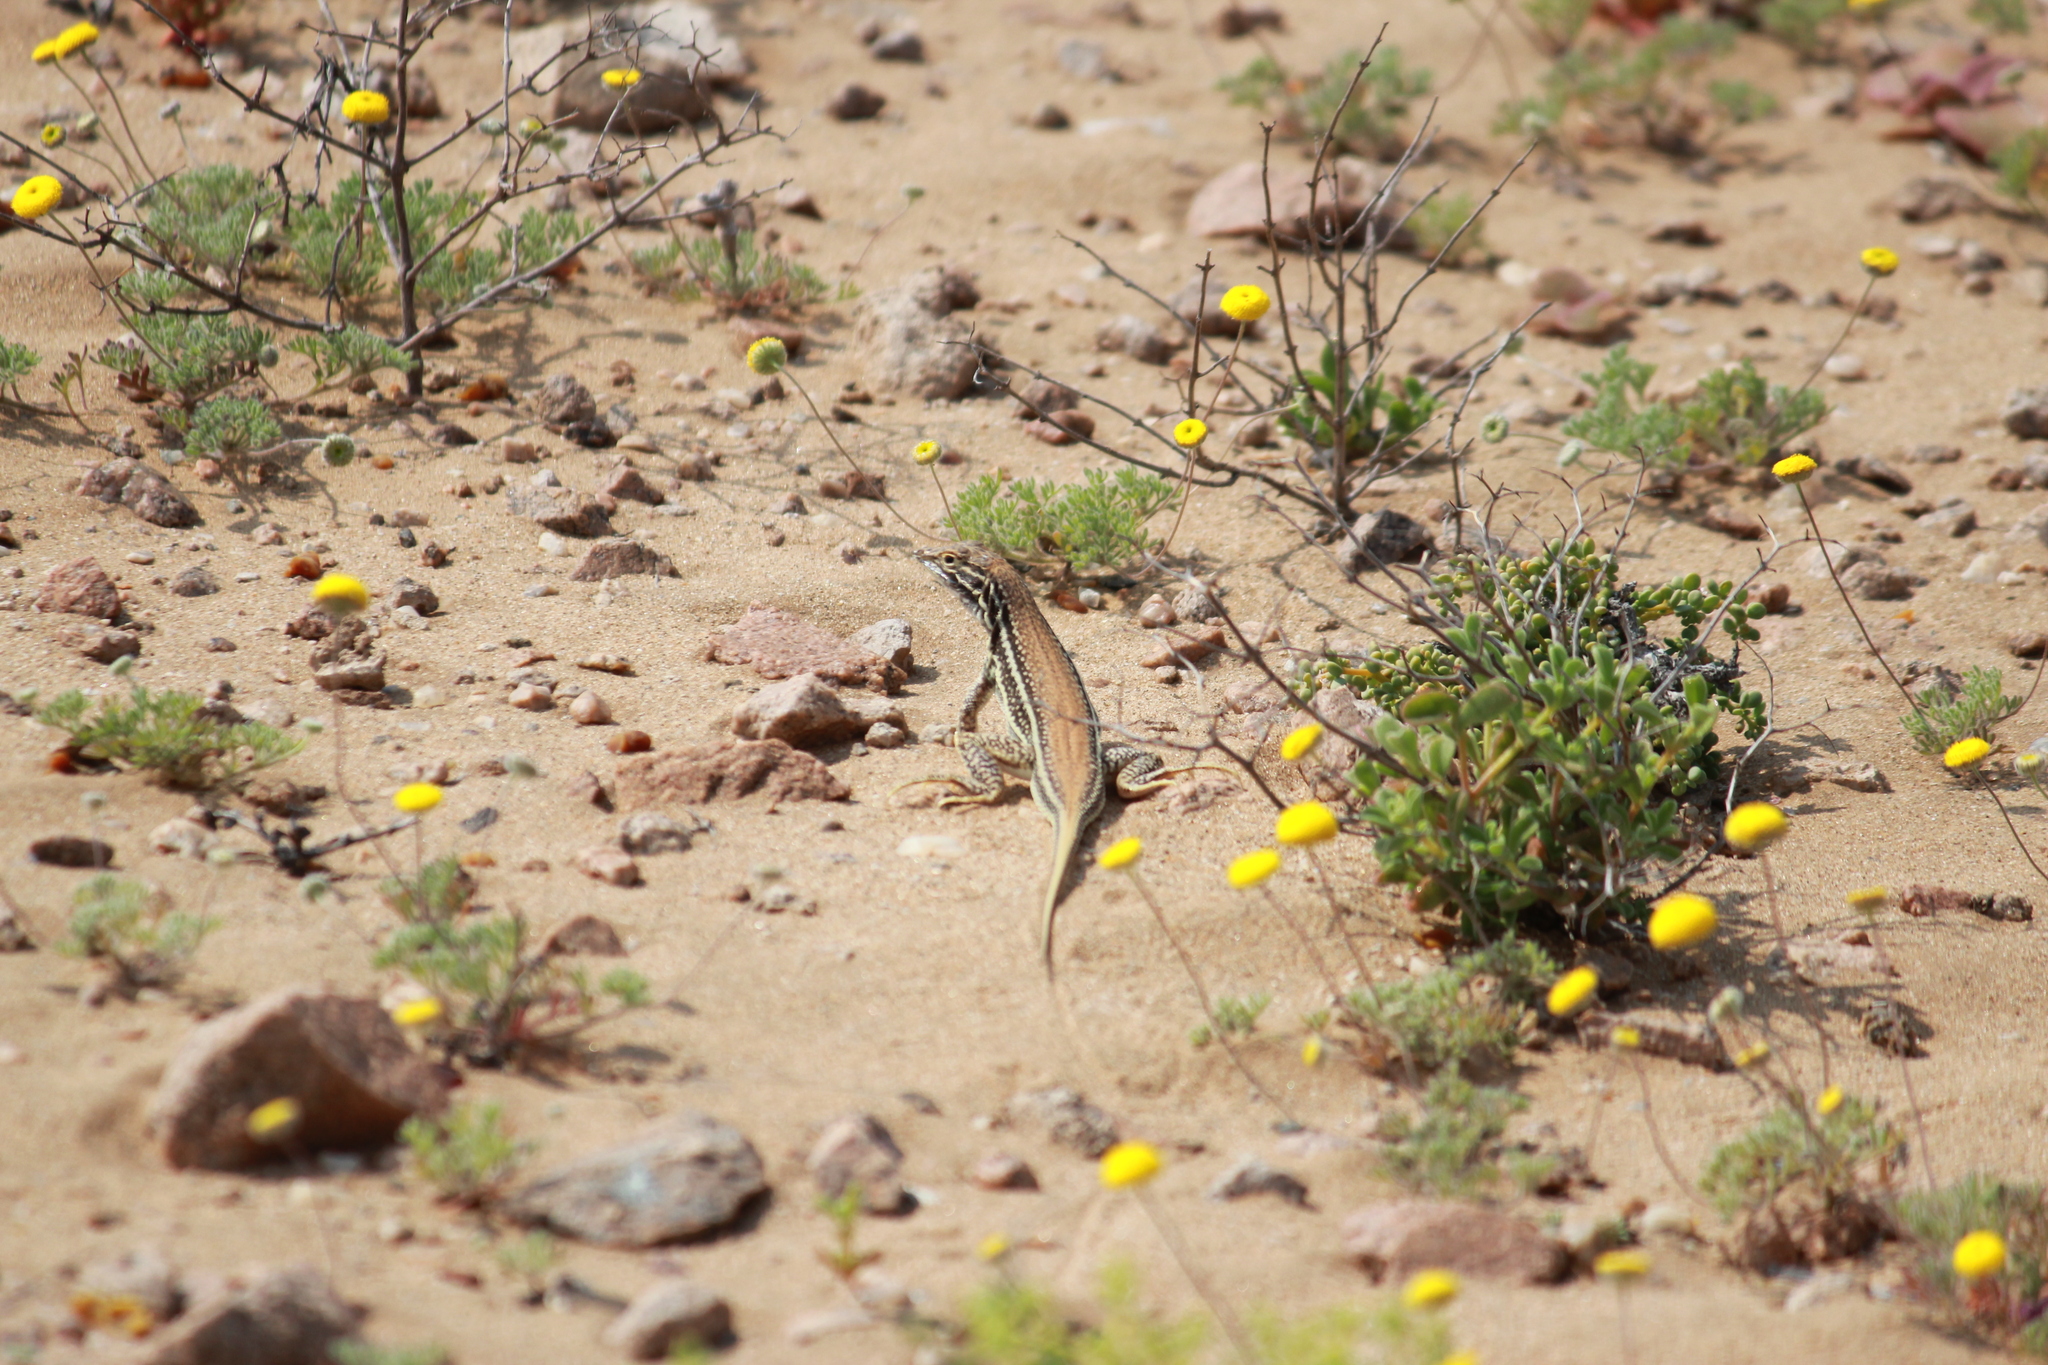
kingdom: Animalia
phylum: Chordata
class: Squamata
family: Lacertidae
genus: Meroles
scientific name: Meroles ctenodactylus
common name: Giant desert lizard
